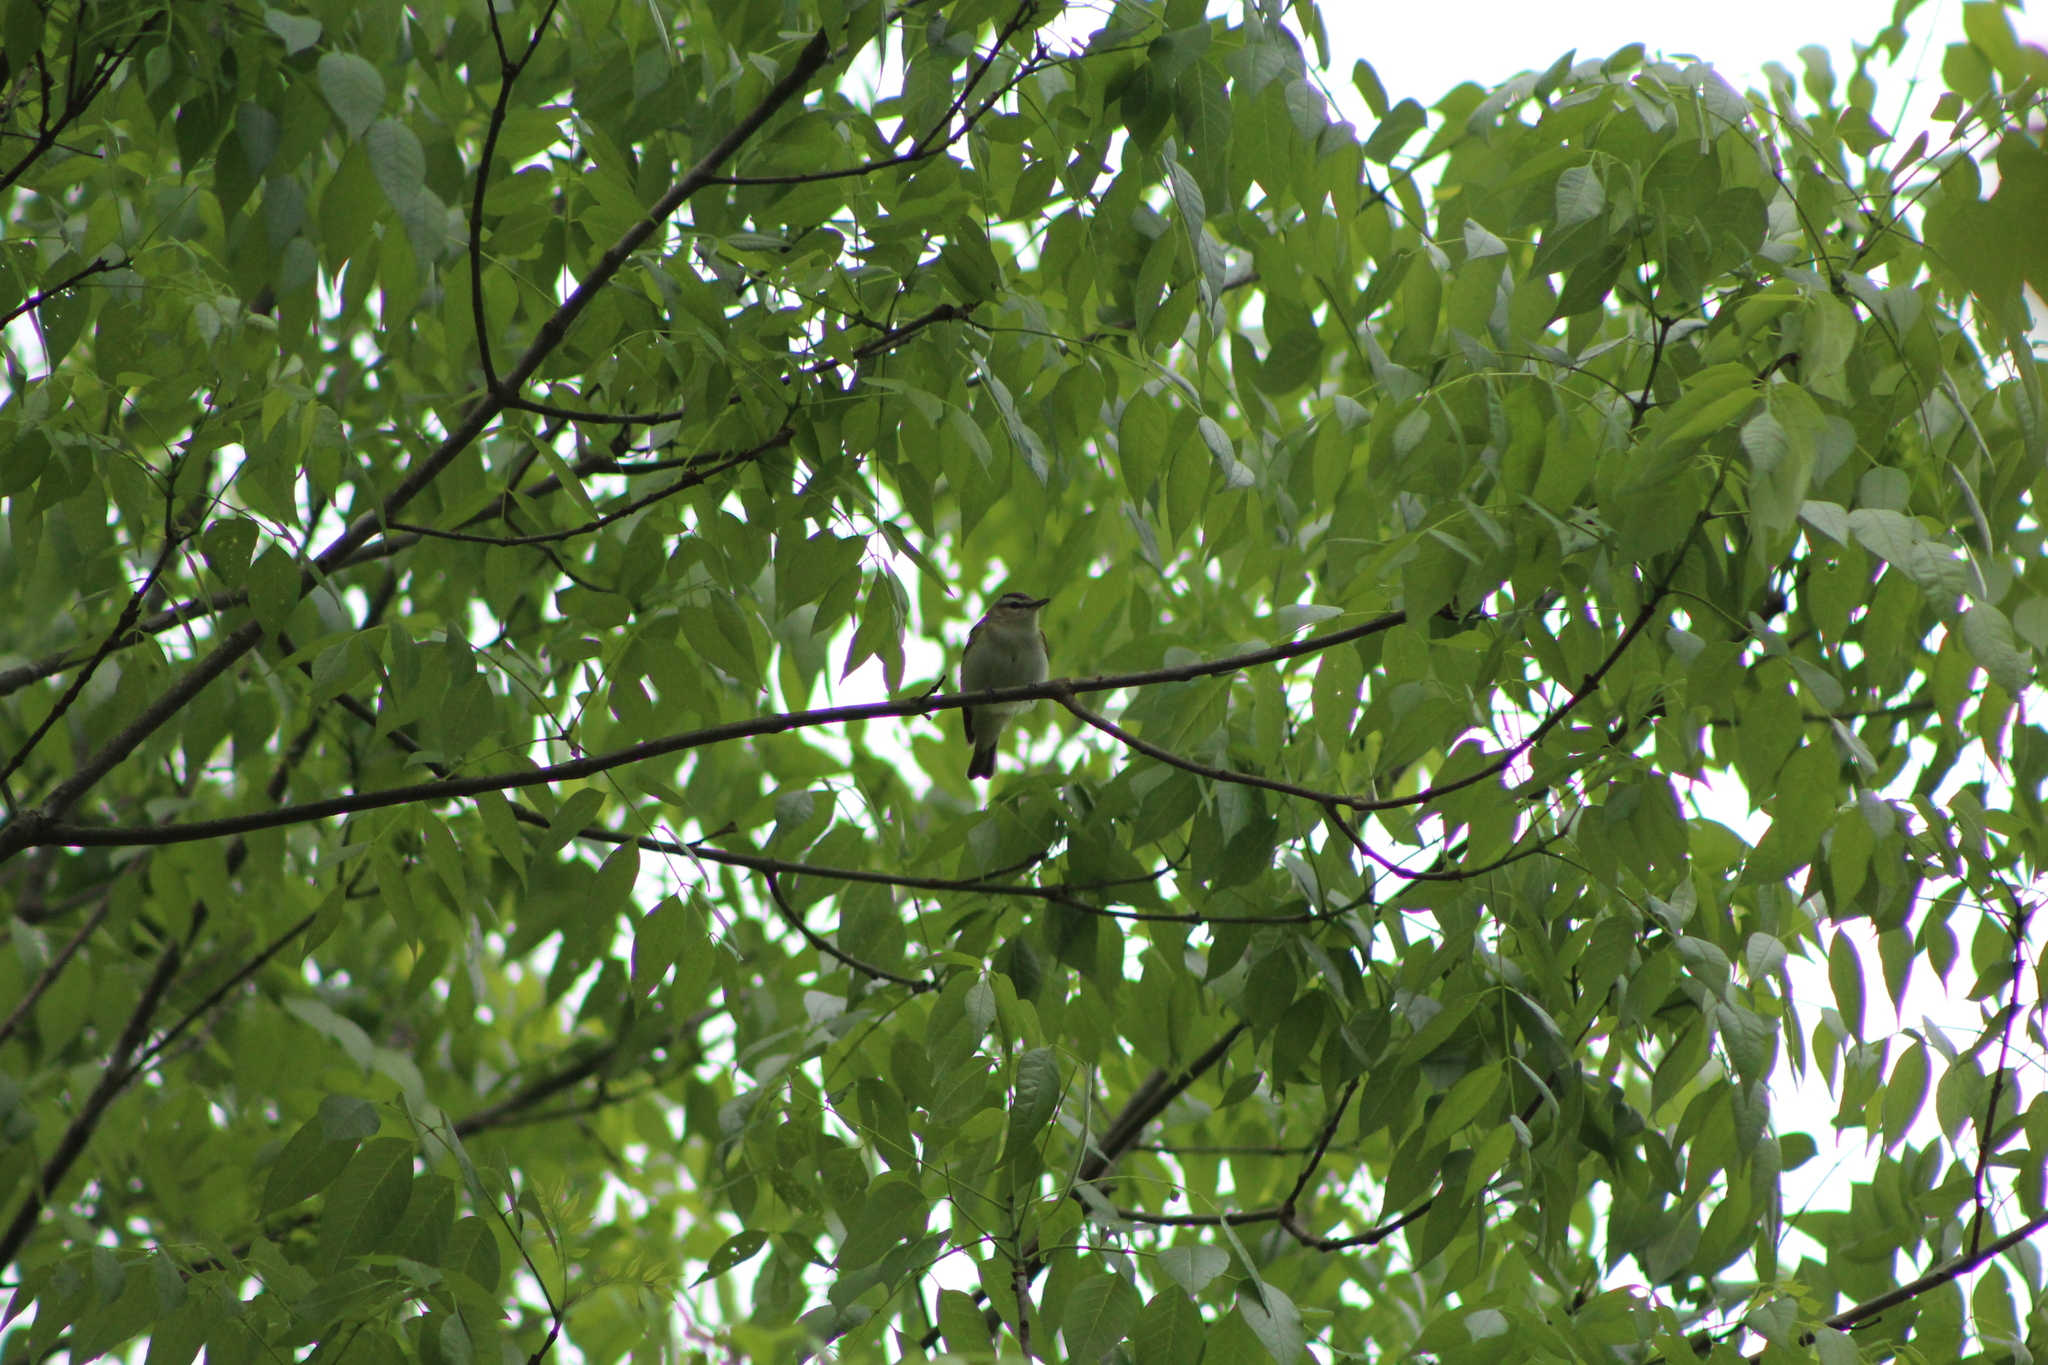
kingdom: Animalia
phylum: Chordata
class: Aves
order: Passeriformes
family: Vireonidae
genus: Vireo
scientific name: Vireo olivaceus
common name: Red-eyed vireo
